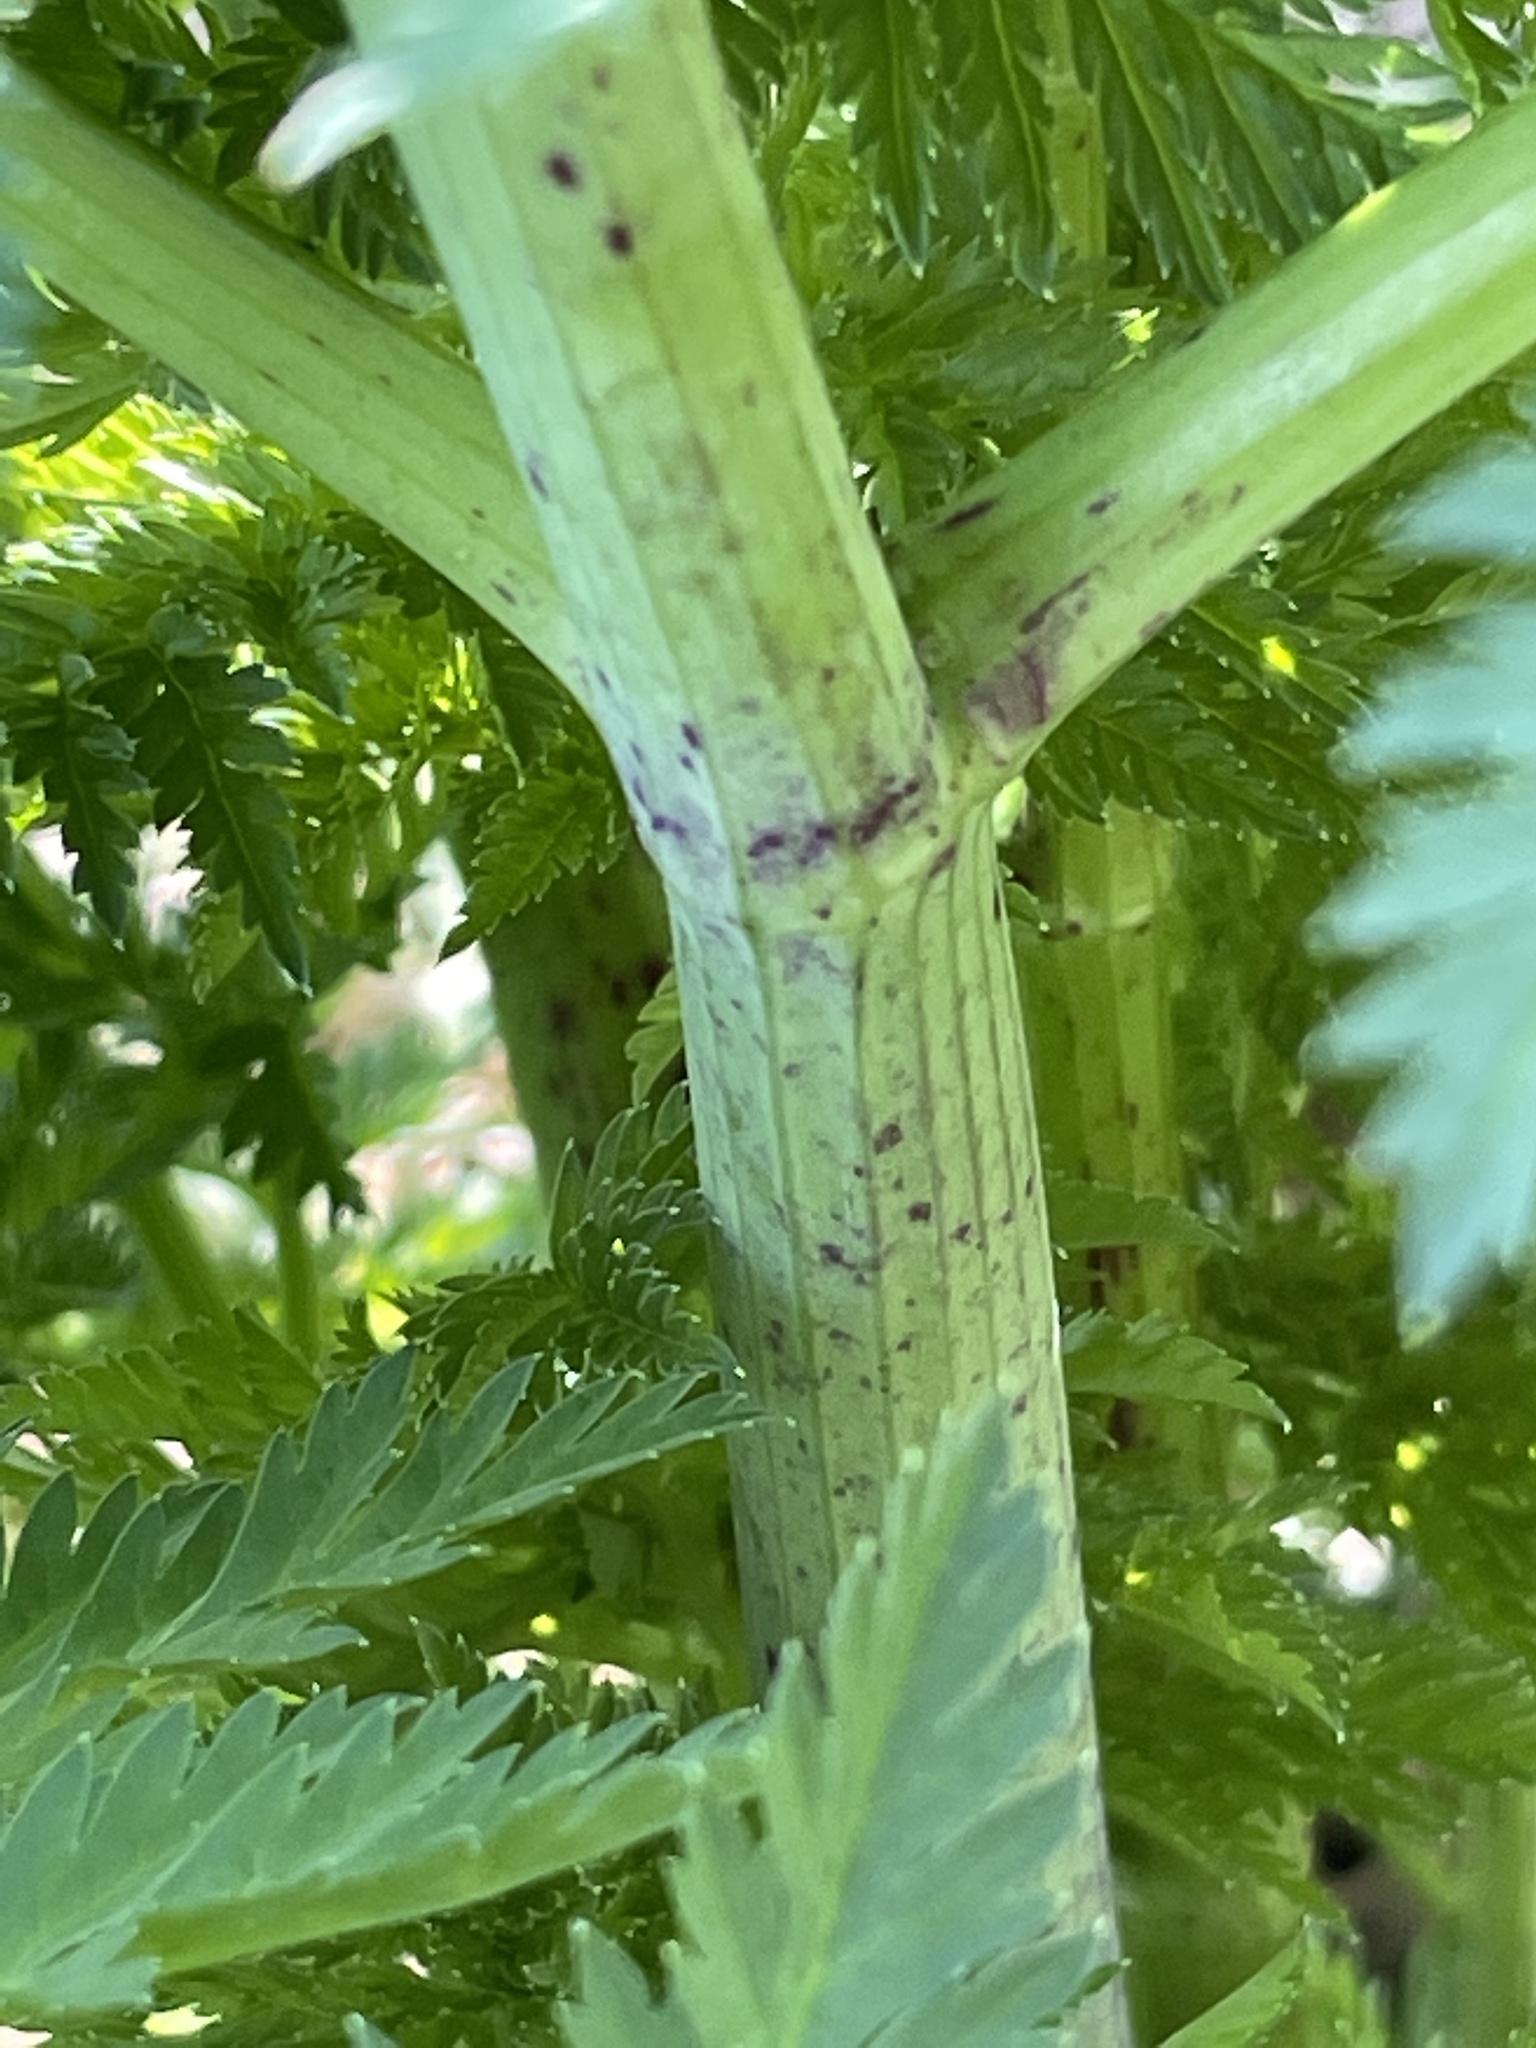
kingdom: Plantae
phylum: Tracheophyta
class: Magnoliopsida
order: Apiales
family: Apiaceae
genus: Conium
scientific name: Conium maculatum
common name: Hemlock
